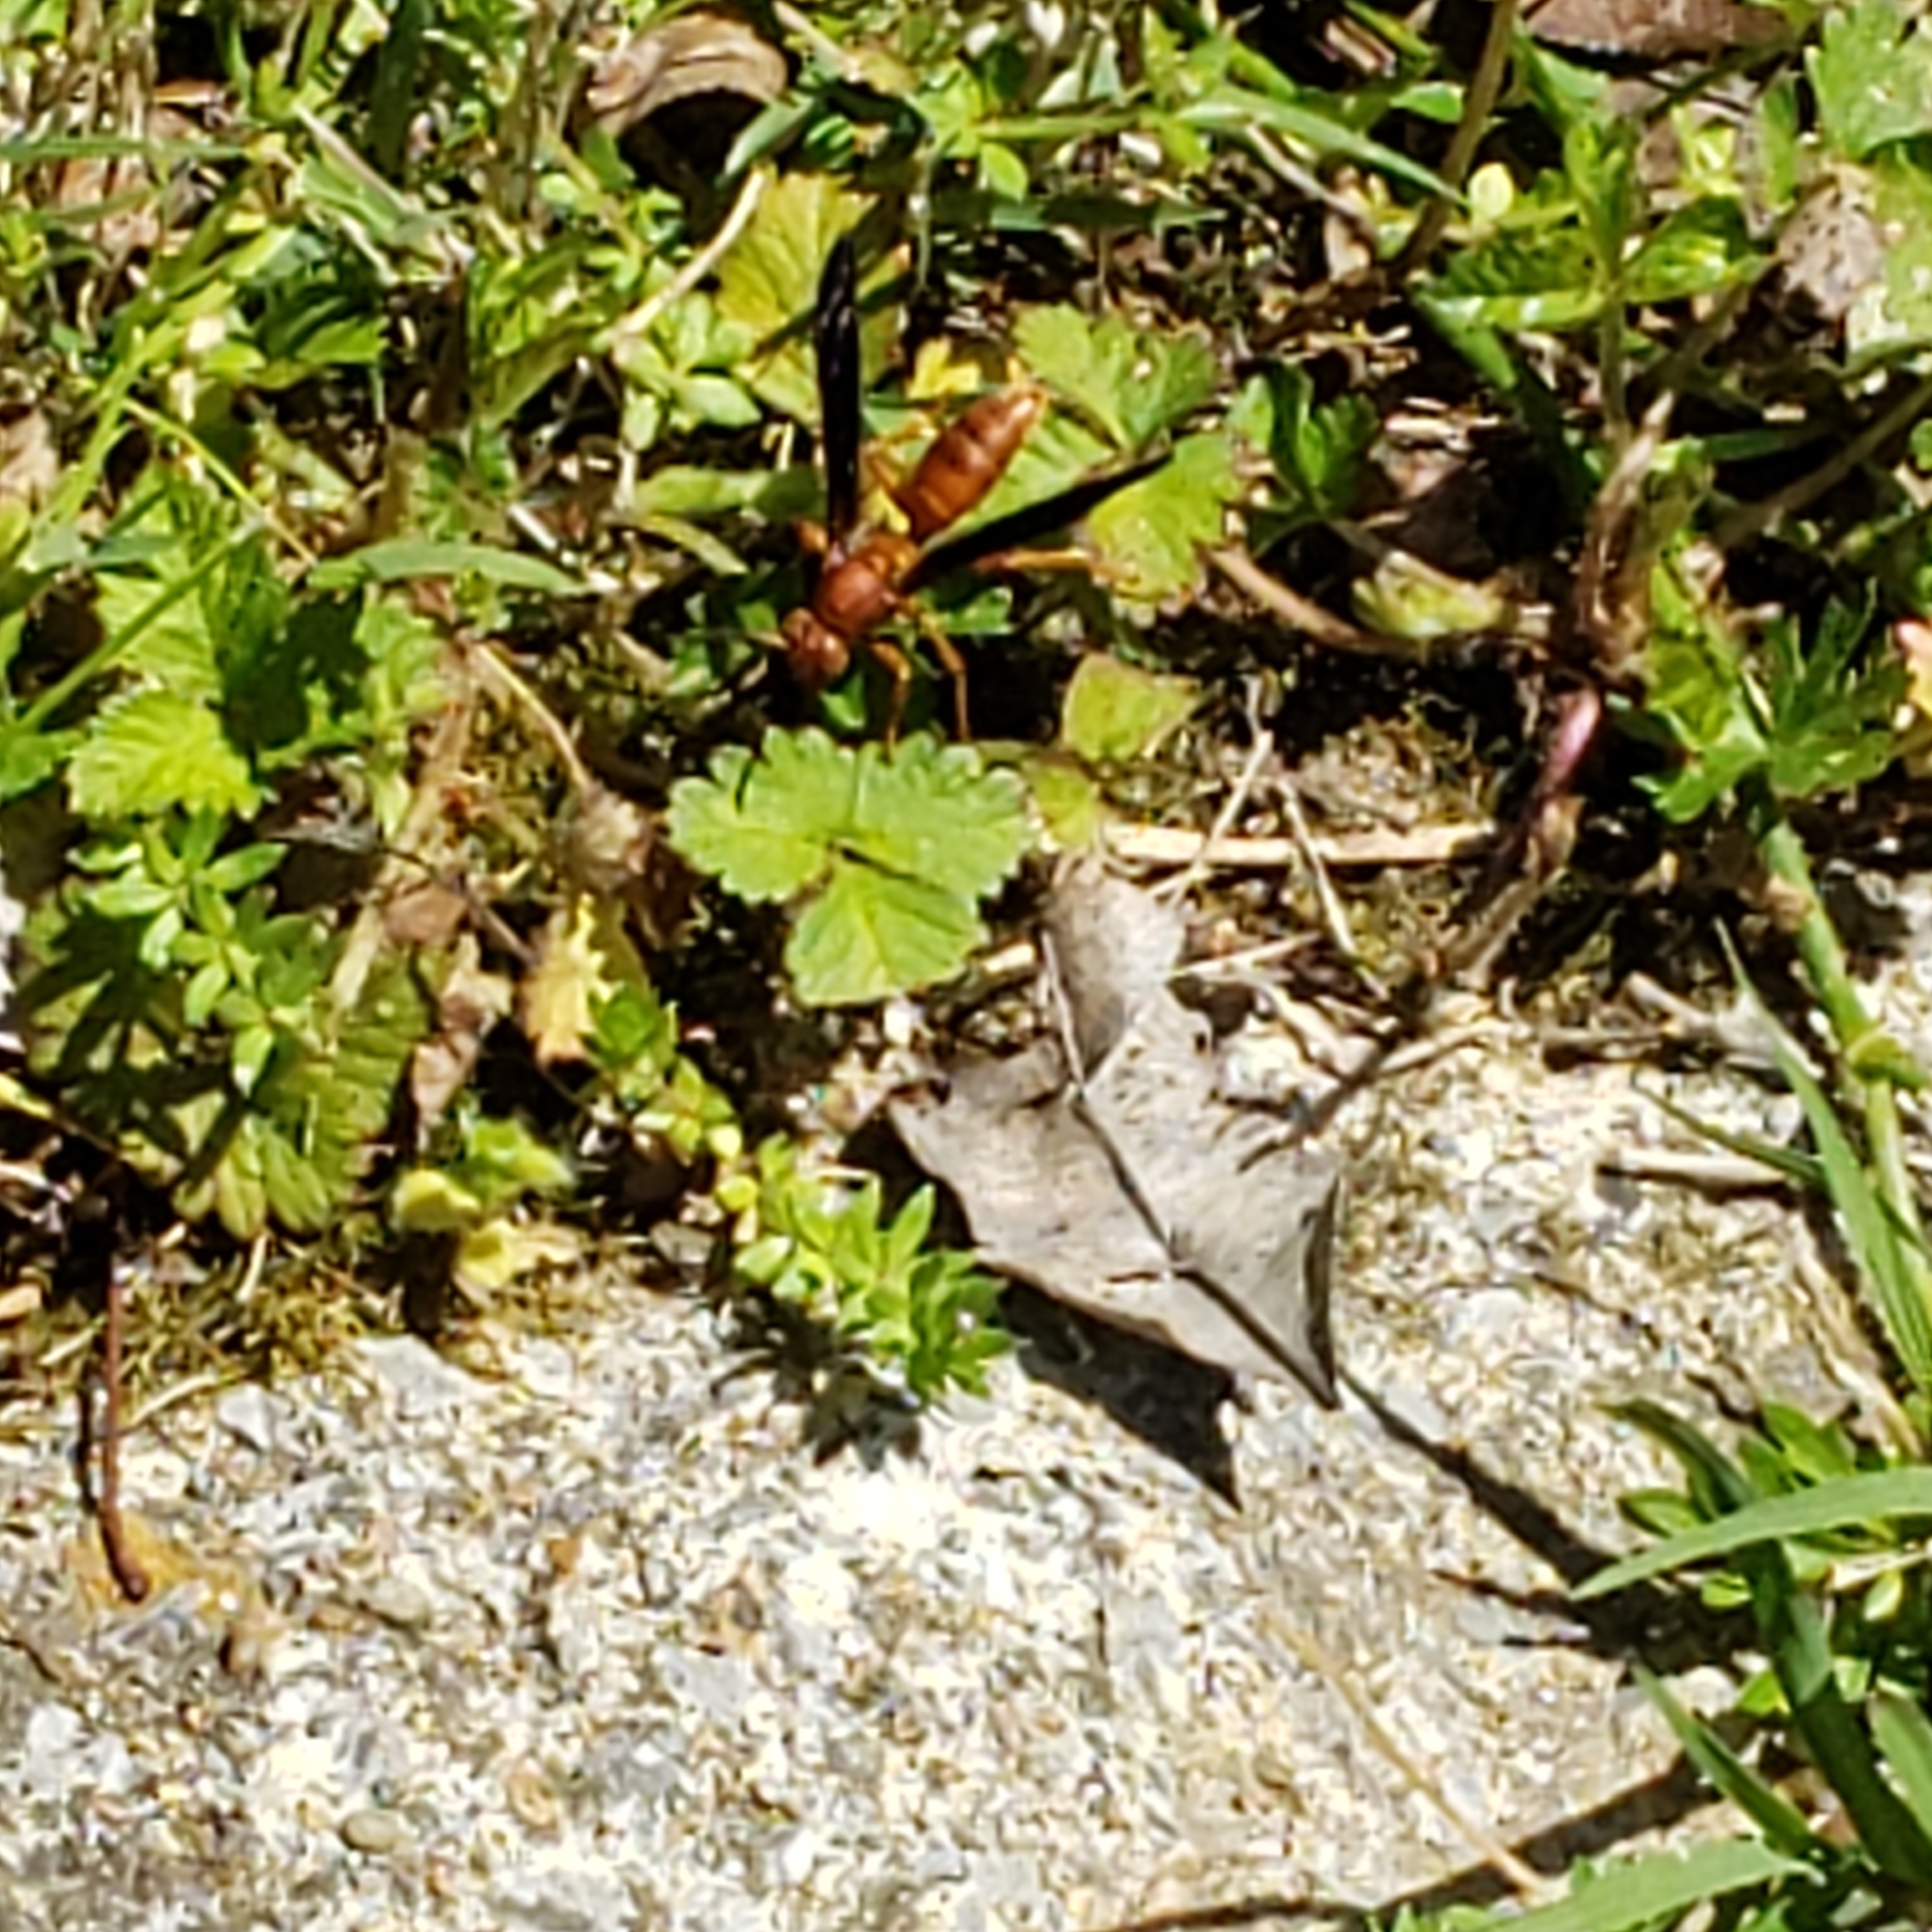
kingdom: Animalia
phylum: Arthropoda
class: Insecta
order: Hymenoptera
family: Vespidae
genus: Fuscopolistes
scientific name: Fuscopolistes
